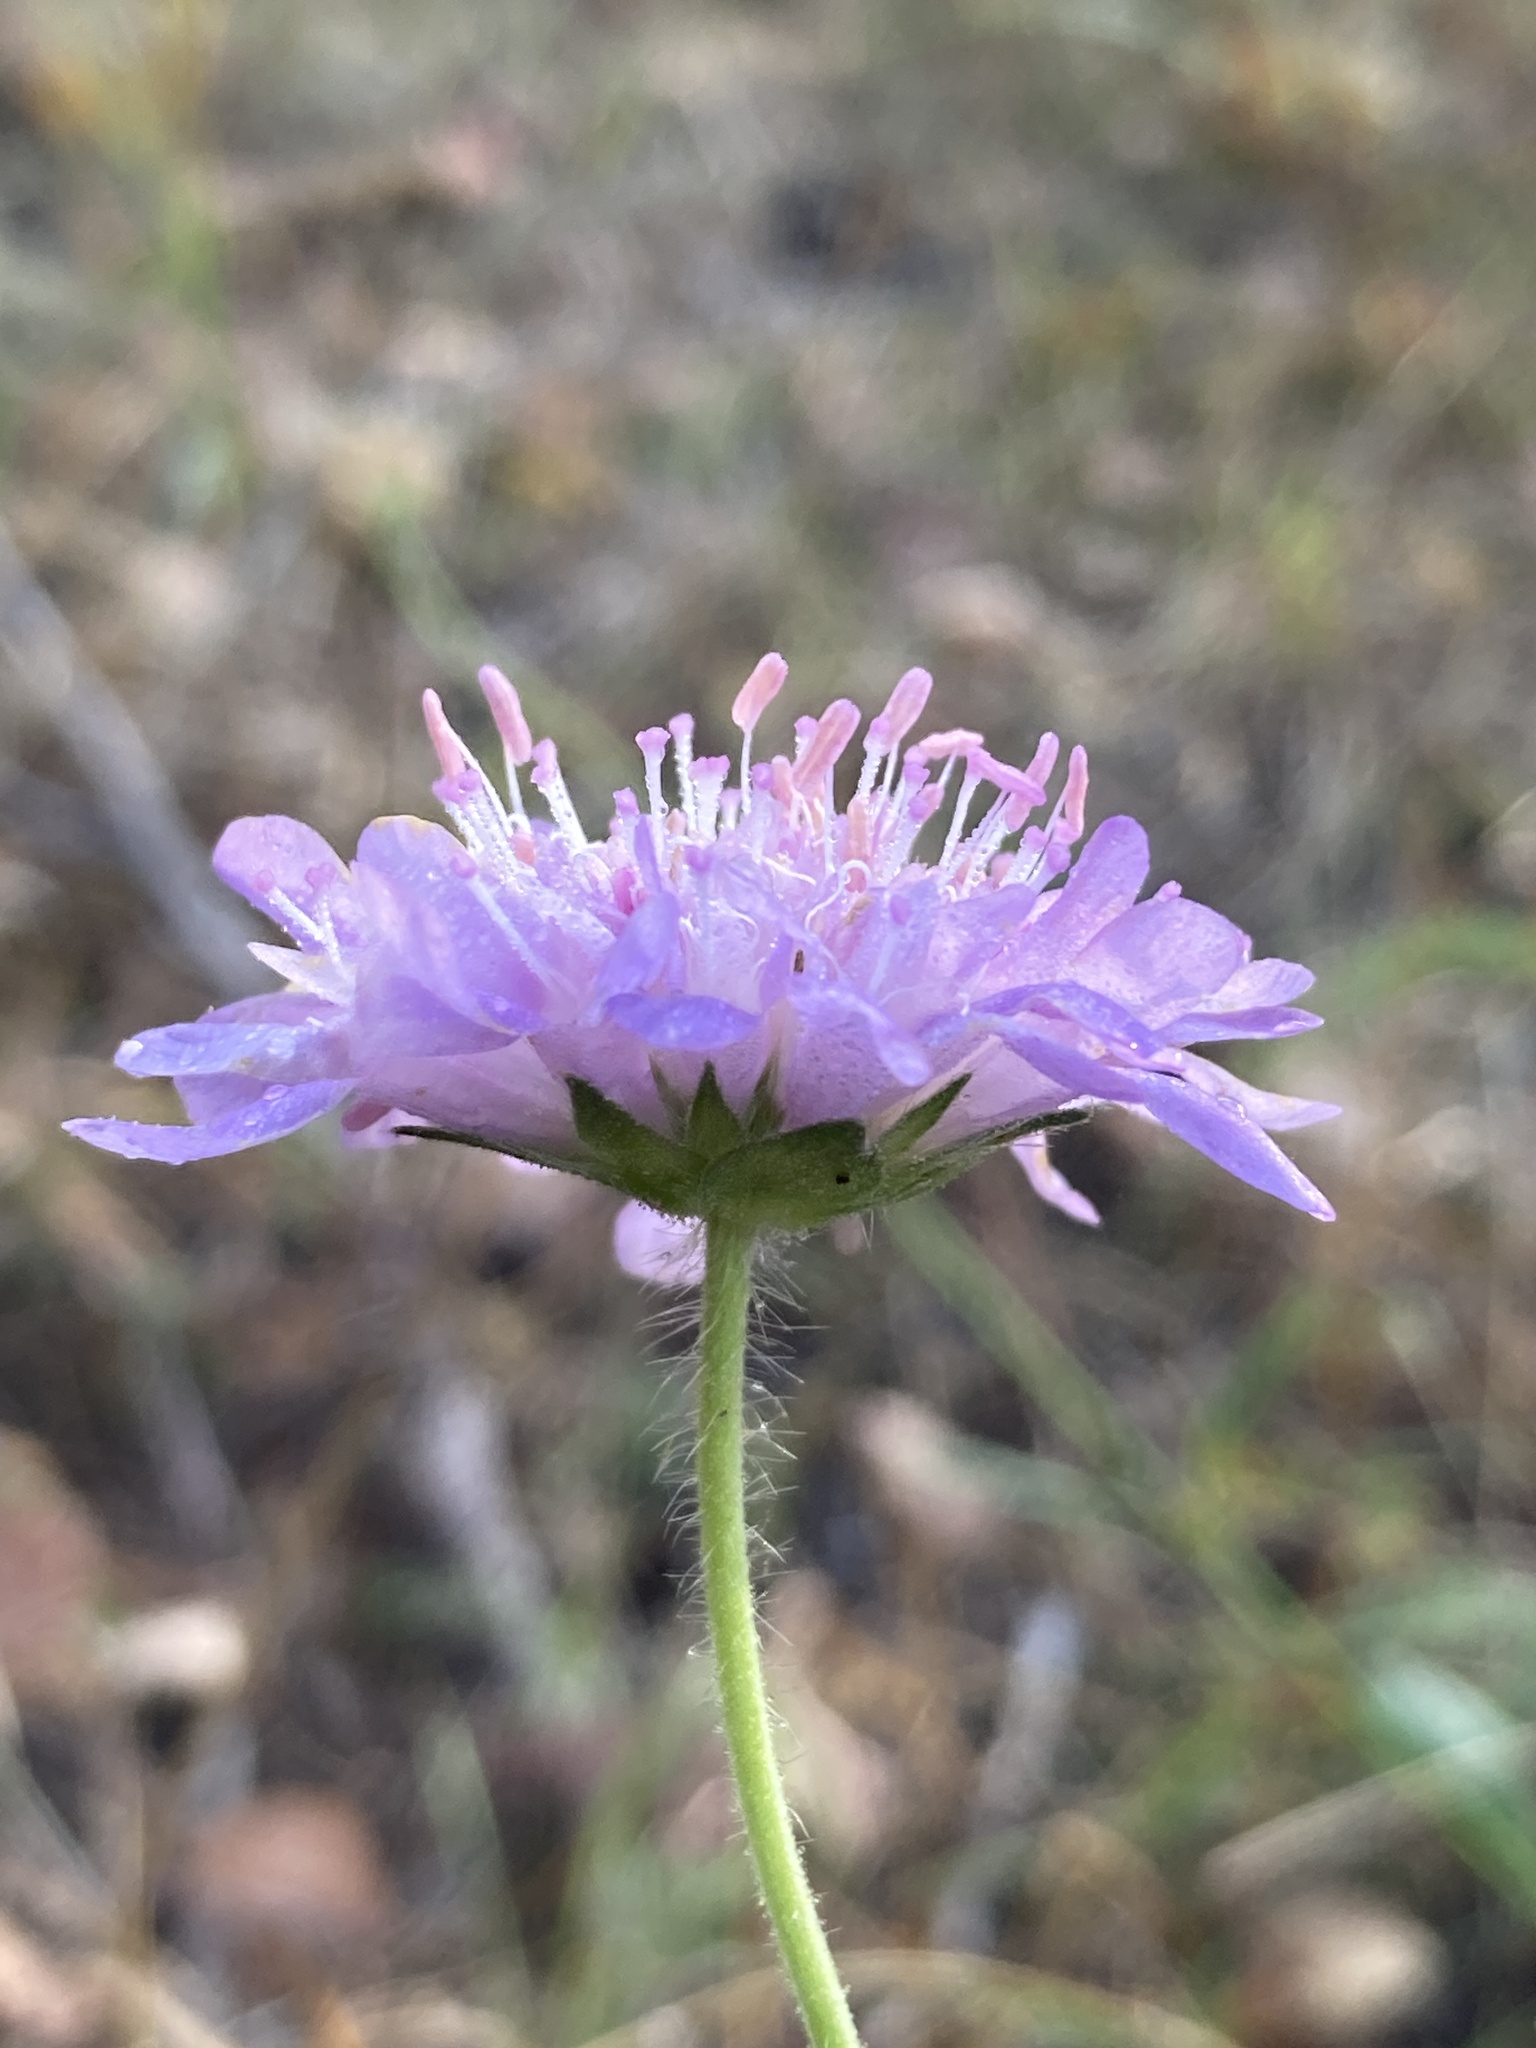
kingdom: Plantae
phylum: Tracheophyta
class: Magnoliopsida
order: Dipsacales
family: Caprifoliaceae
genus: Knautia
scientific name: Knautia arvensis
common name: Field scabiosa
